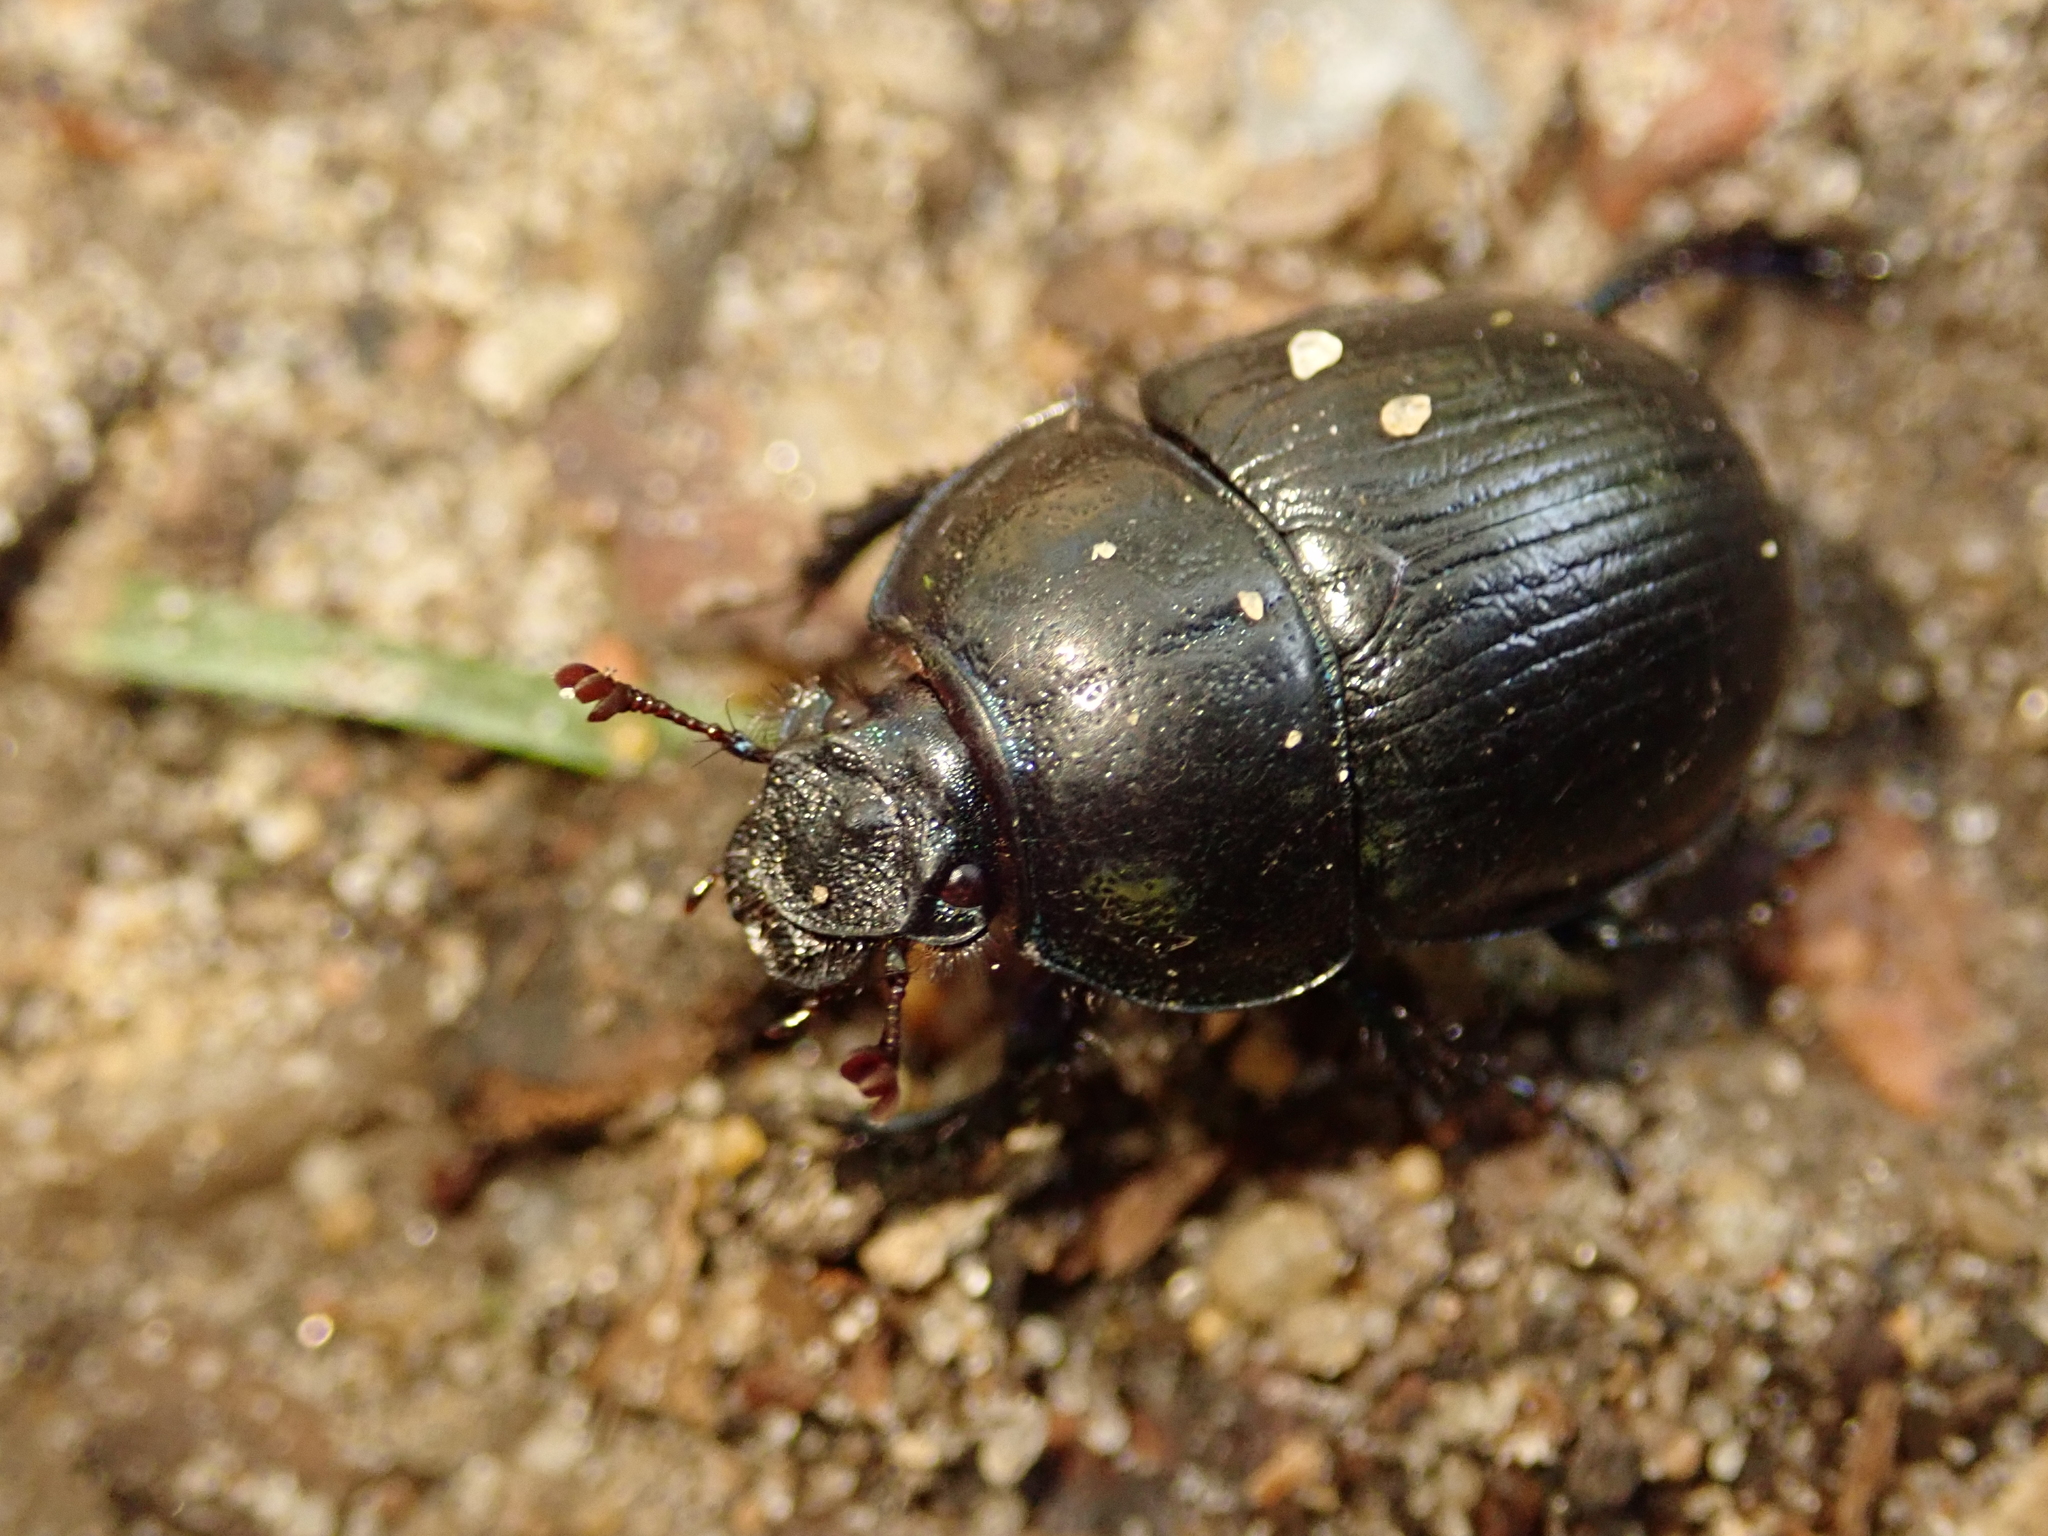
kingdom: Animalia
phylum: Arthropoda
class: Insecta
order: Coleoptera
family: Geotrupidae
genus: Anoplotrupes
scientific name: Anoplotrupes stercorosus
